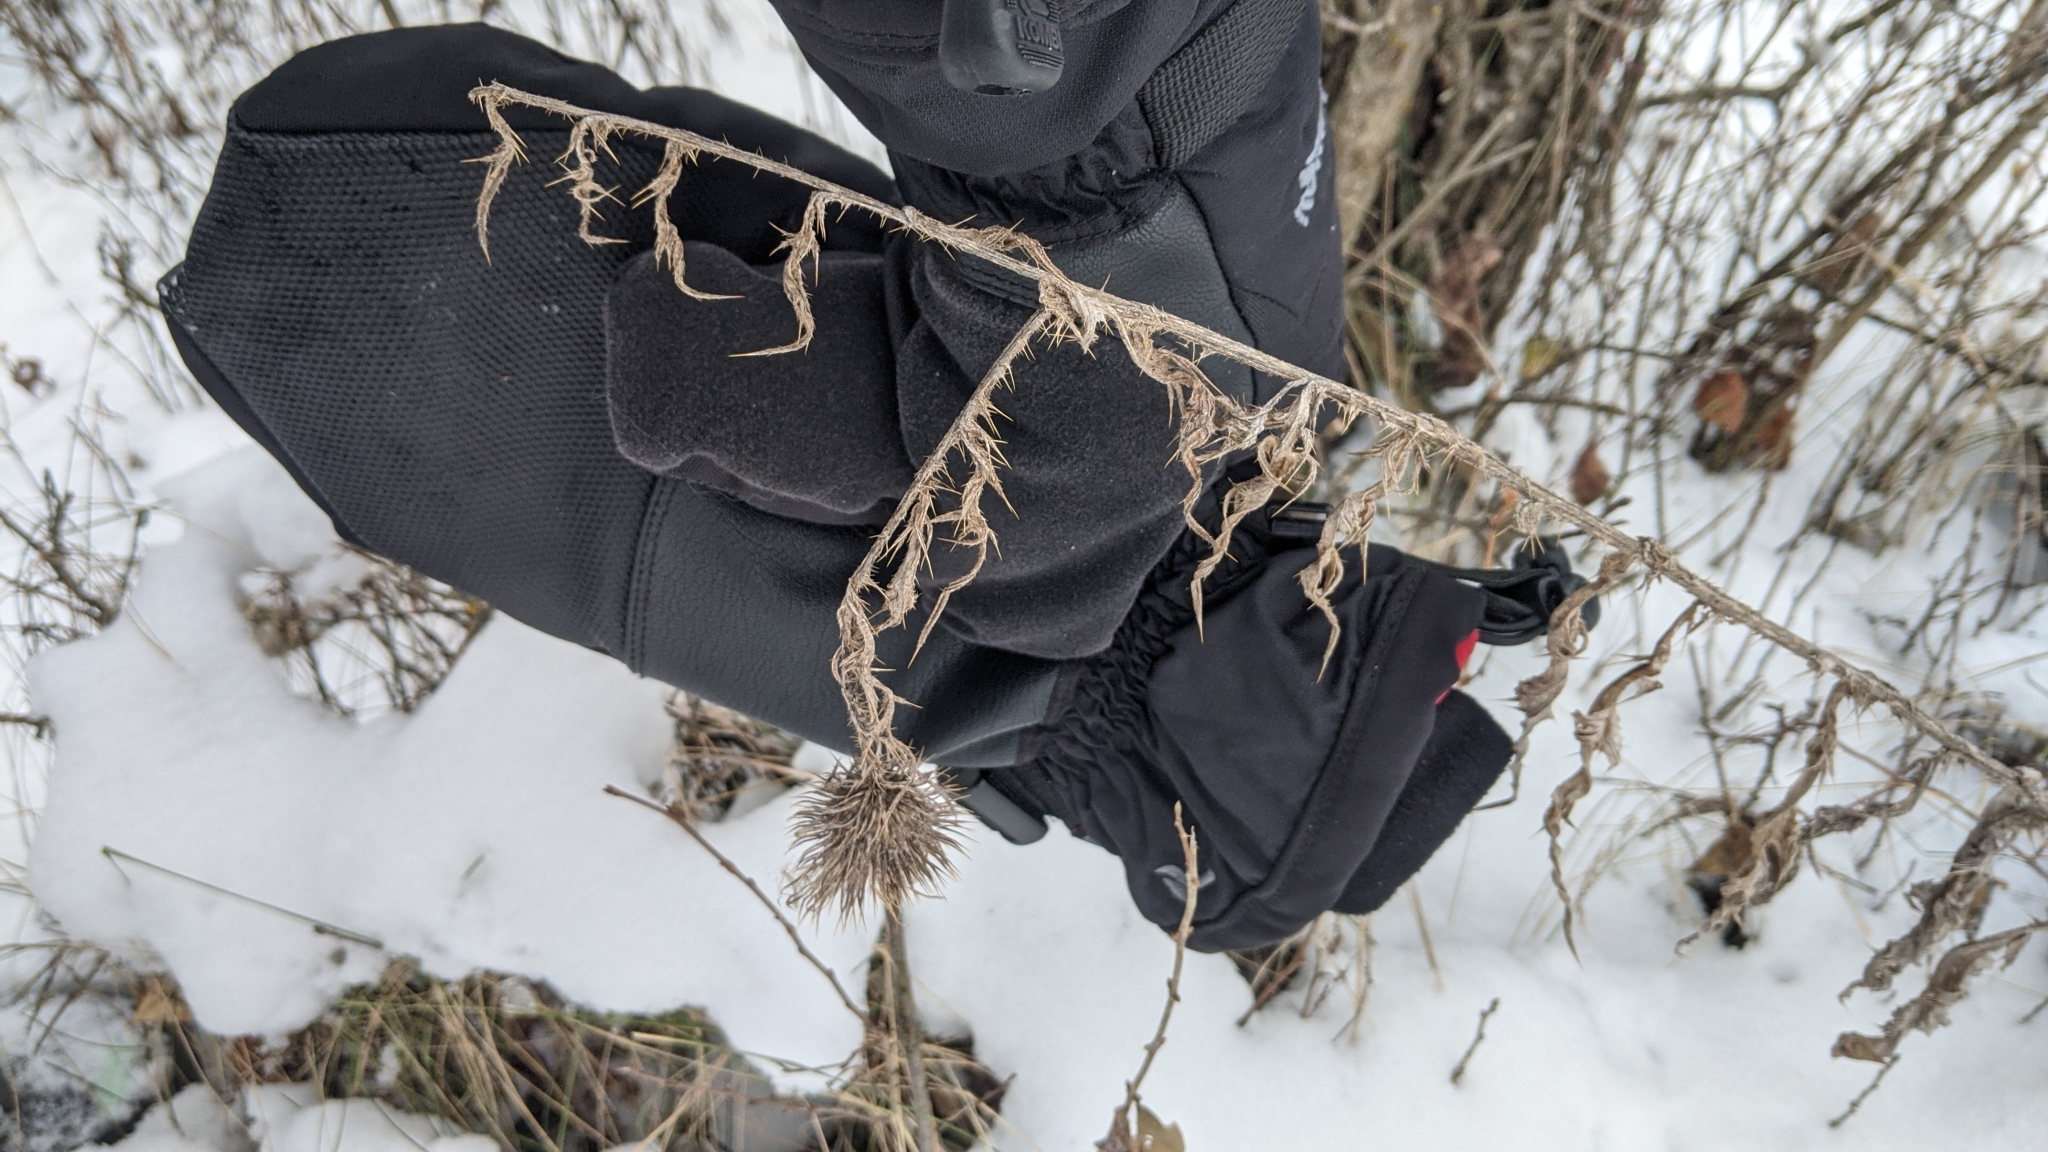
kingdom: Plantae
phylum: Tracheophyta
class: Magnoliopsida
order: Asterales
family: Asteraceae
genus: Cirsium
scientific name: Cirsium vulgare
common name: Bull thistle
